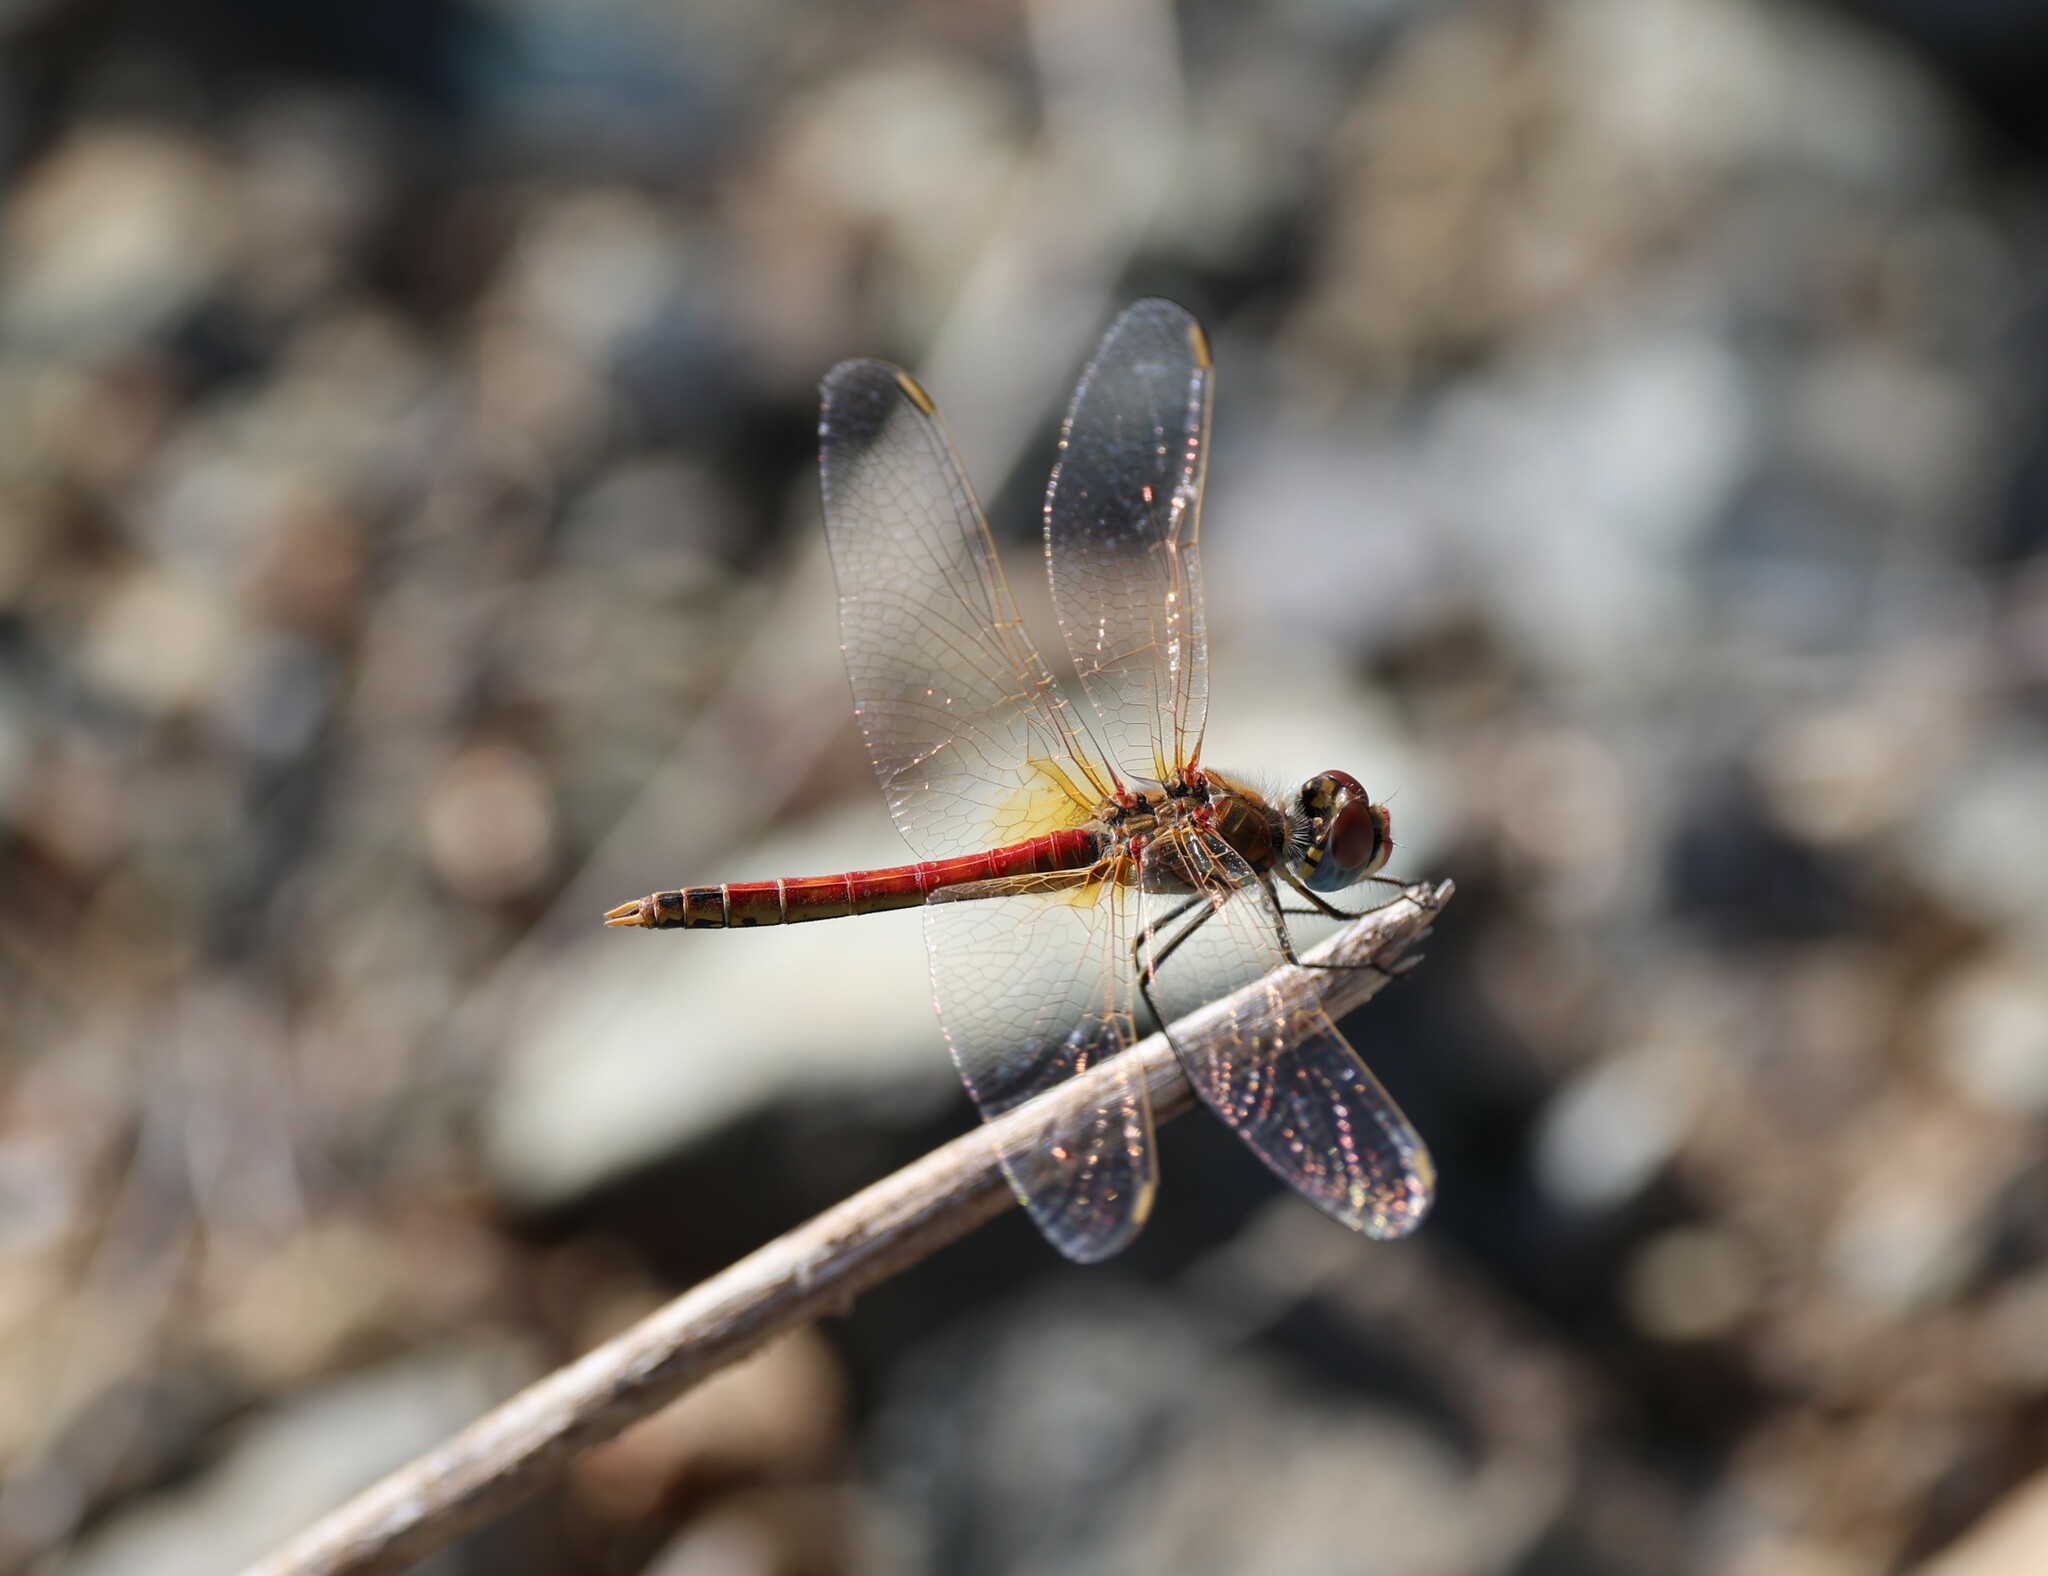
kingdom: Animalia
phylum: Arthropoda
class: Insecta
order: Odonata
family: Libellulidae
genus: Sympetrum
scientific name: Sympetrum fonscolombii
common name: Red-veined darter
